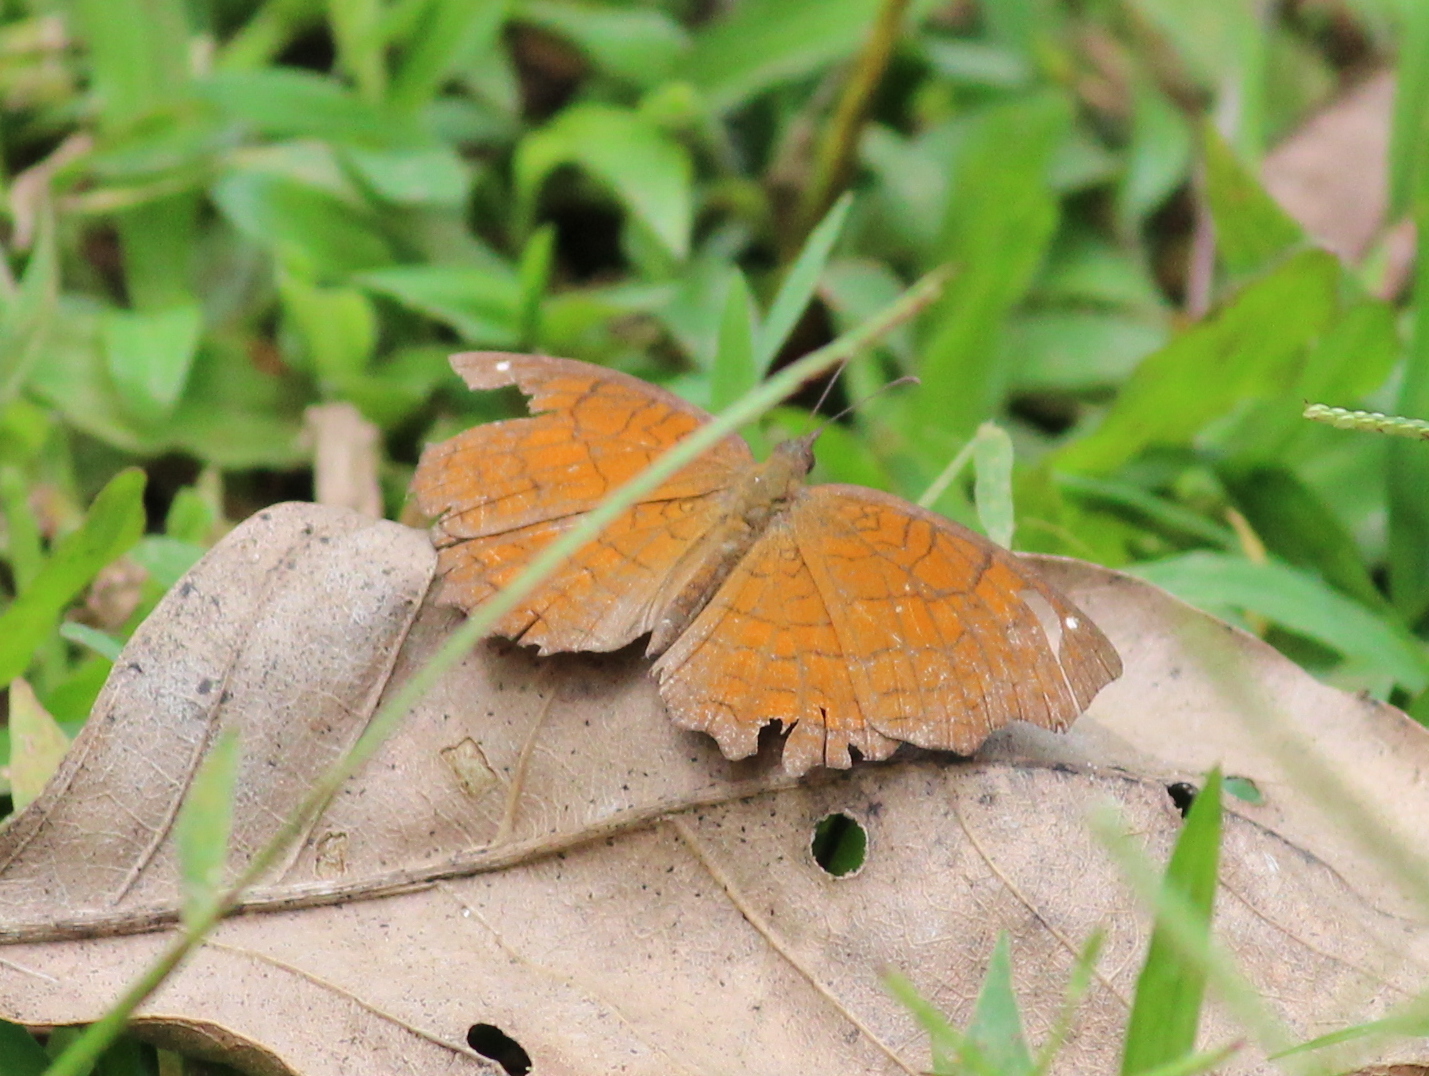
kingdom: Animalia
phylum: Arthropoda
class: Insecta
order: Lepidoptera
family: Nymphalidae
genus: Ariadne
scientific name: Ariadne ariadne
